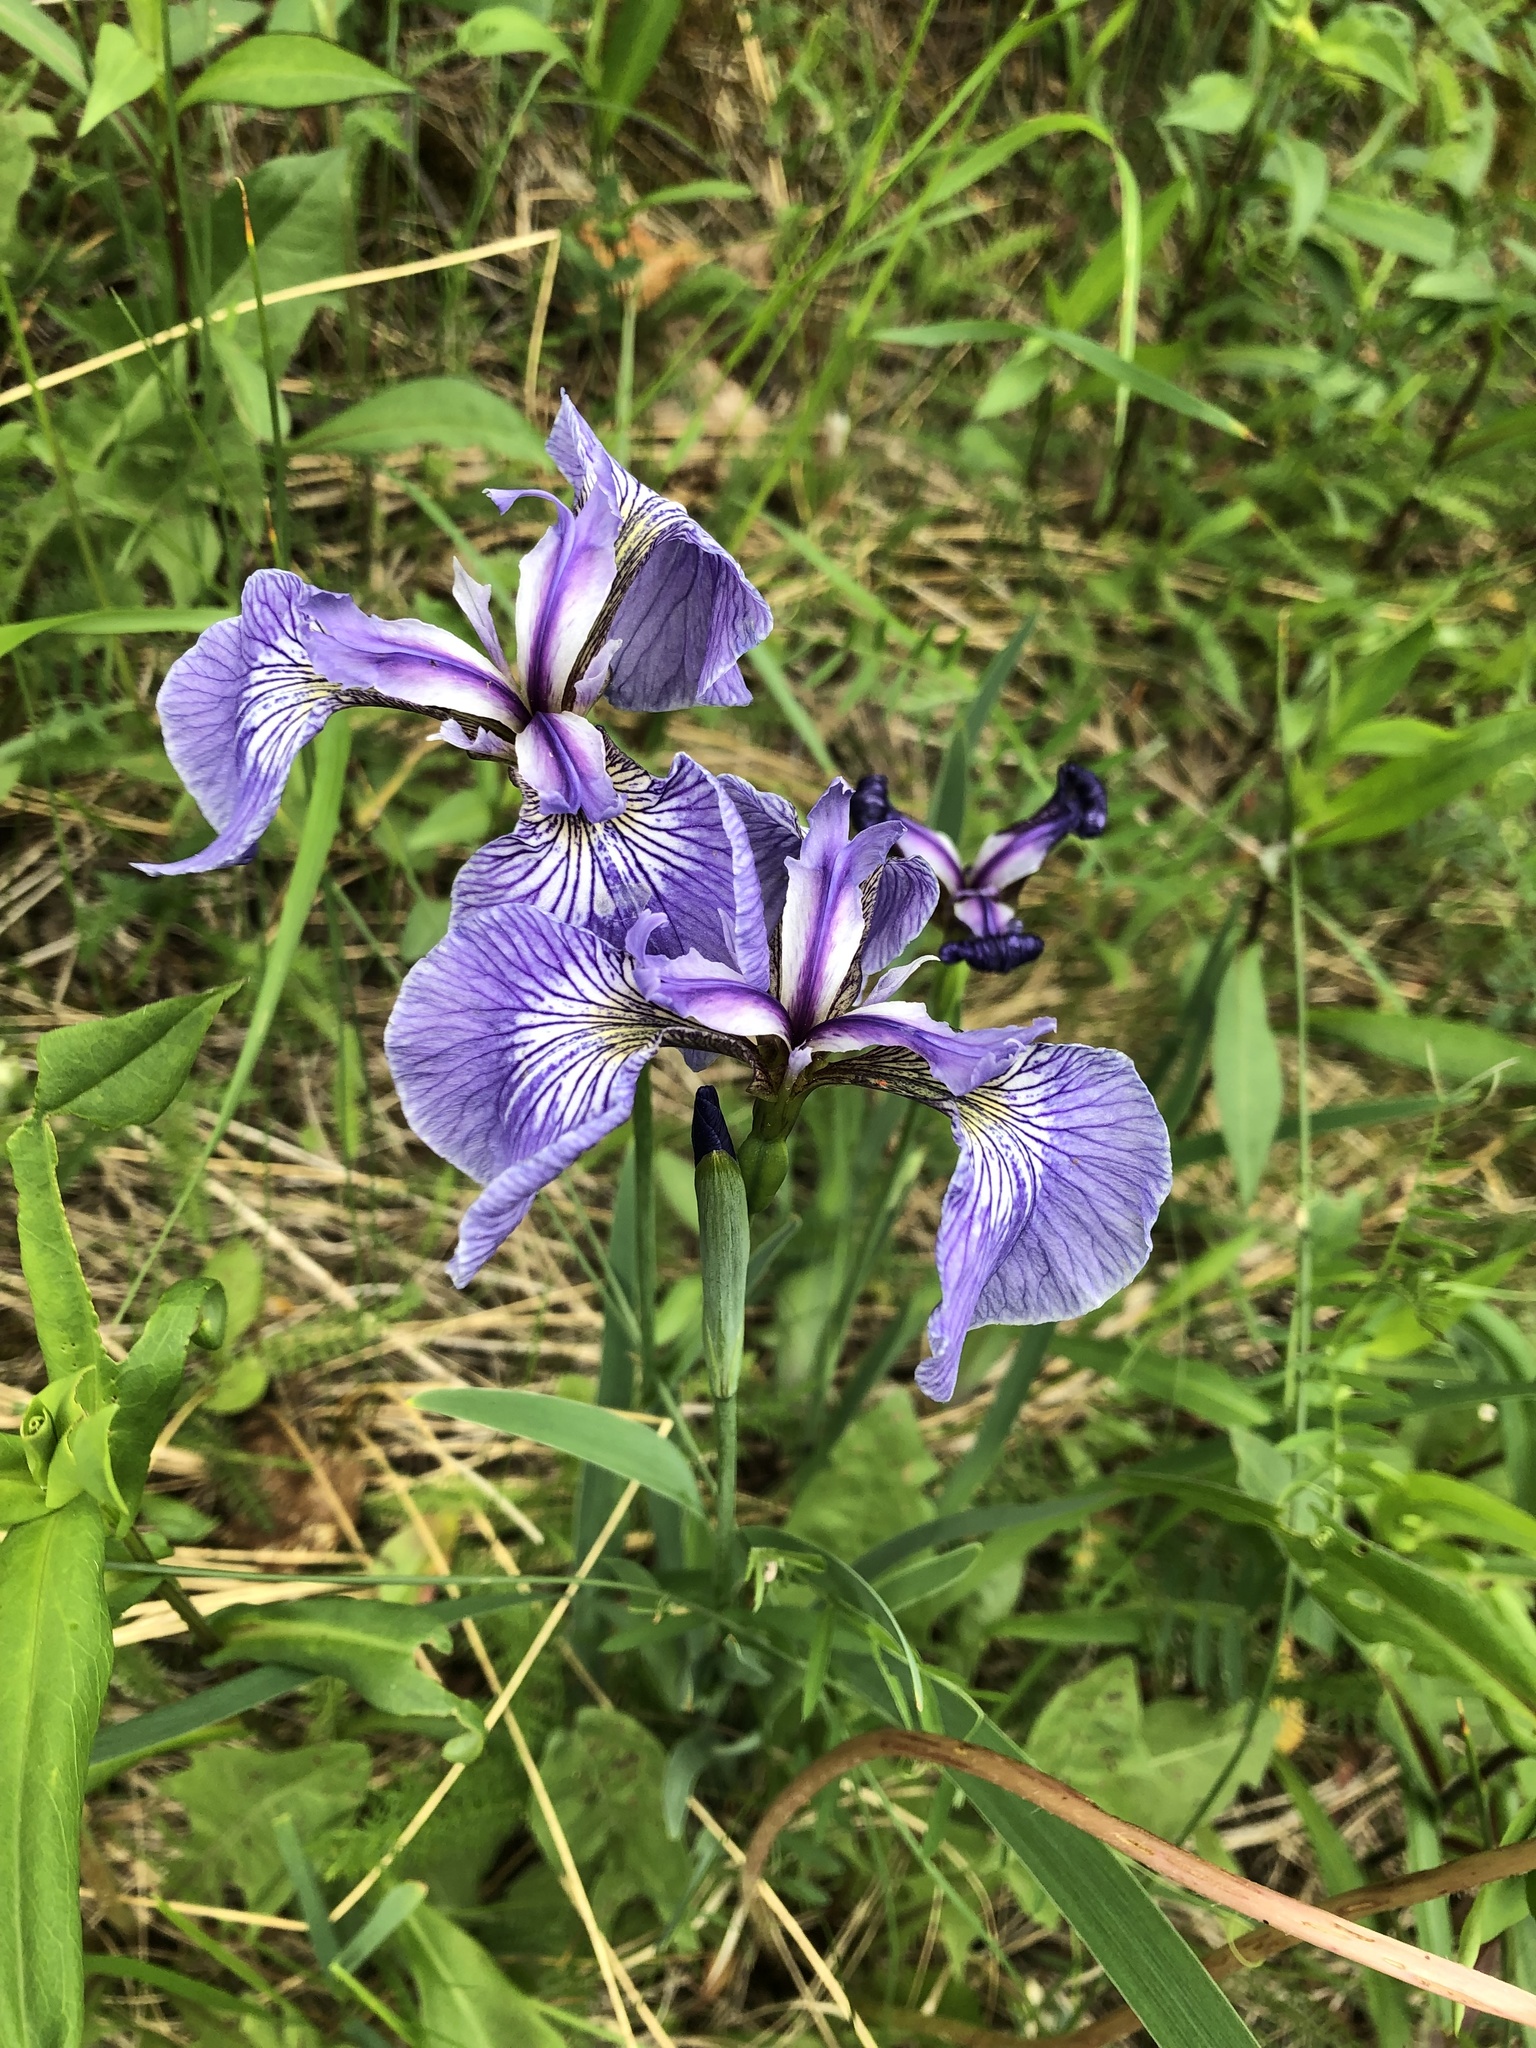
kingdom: Plantae
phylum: Tracheophyta
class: Liliopsida
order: Asparagales
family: Iridaceae
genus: Iris
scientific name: Iris hookeri
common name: Canada beach-head iris
